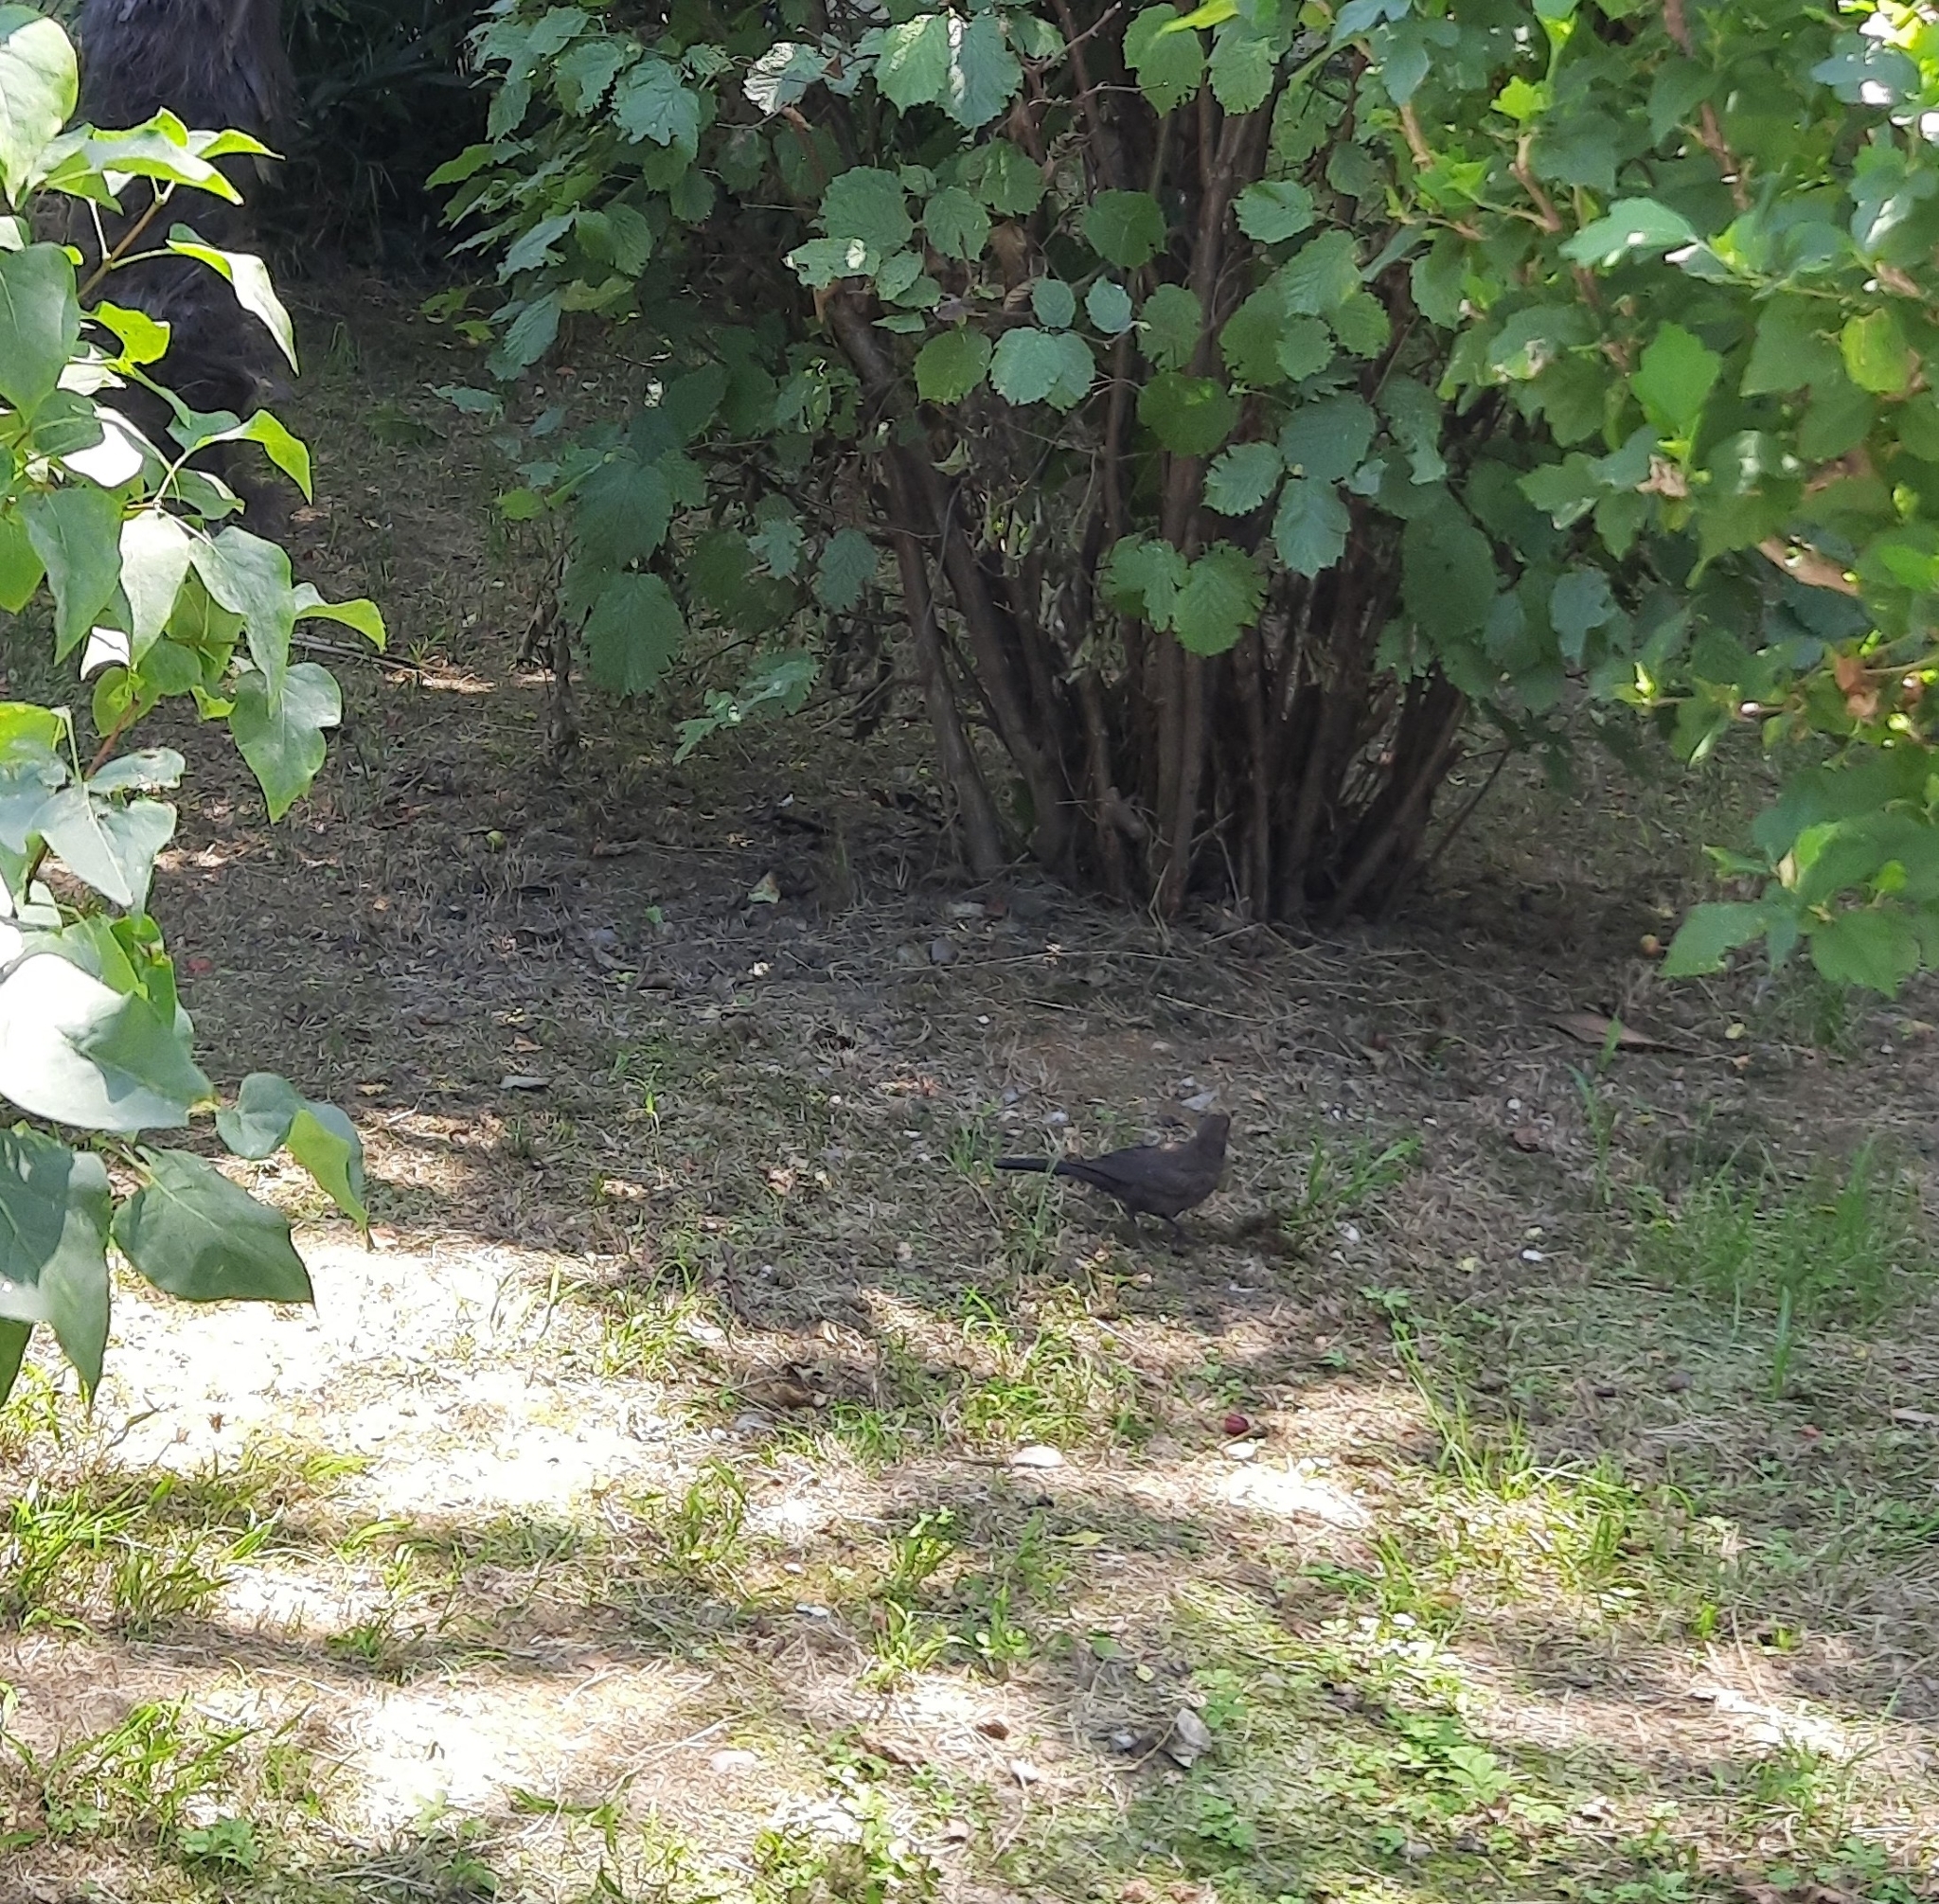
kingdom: Animalia
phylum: Chordata
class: Aves
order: Passeriformes
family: Turdidae
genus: Turdus
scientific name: Turdus merula
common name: Common blackbird
